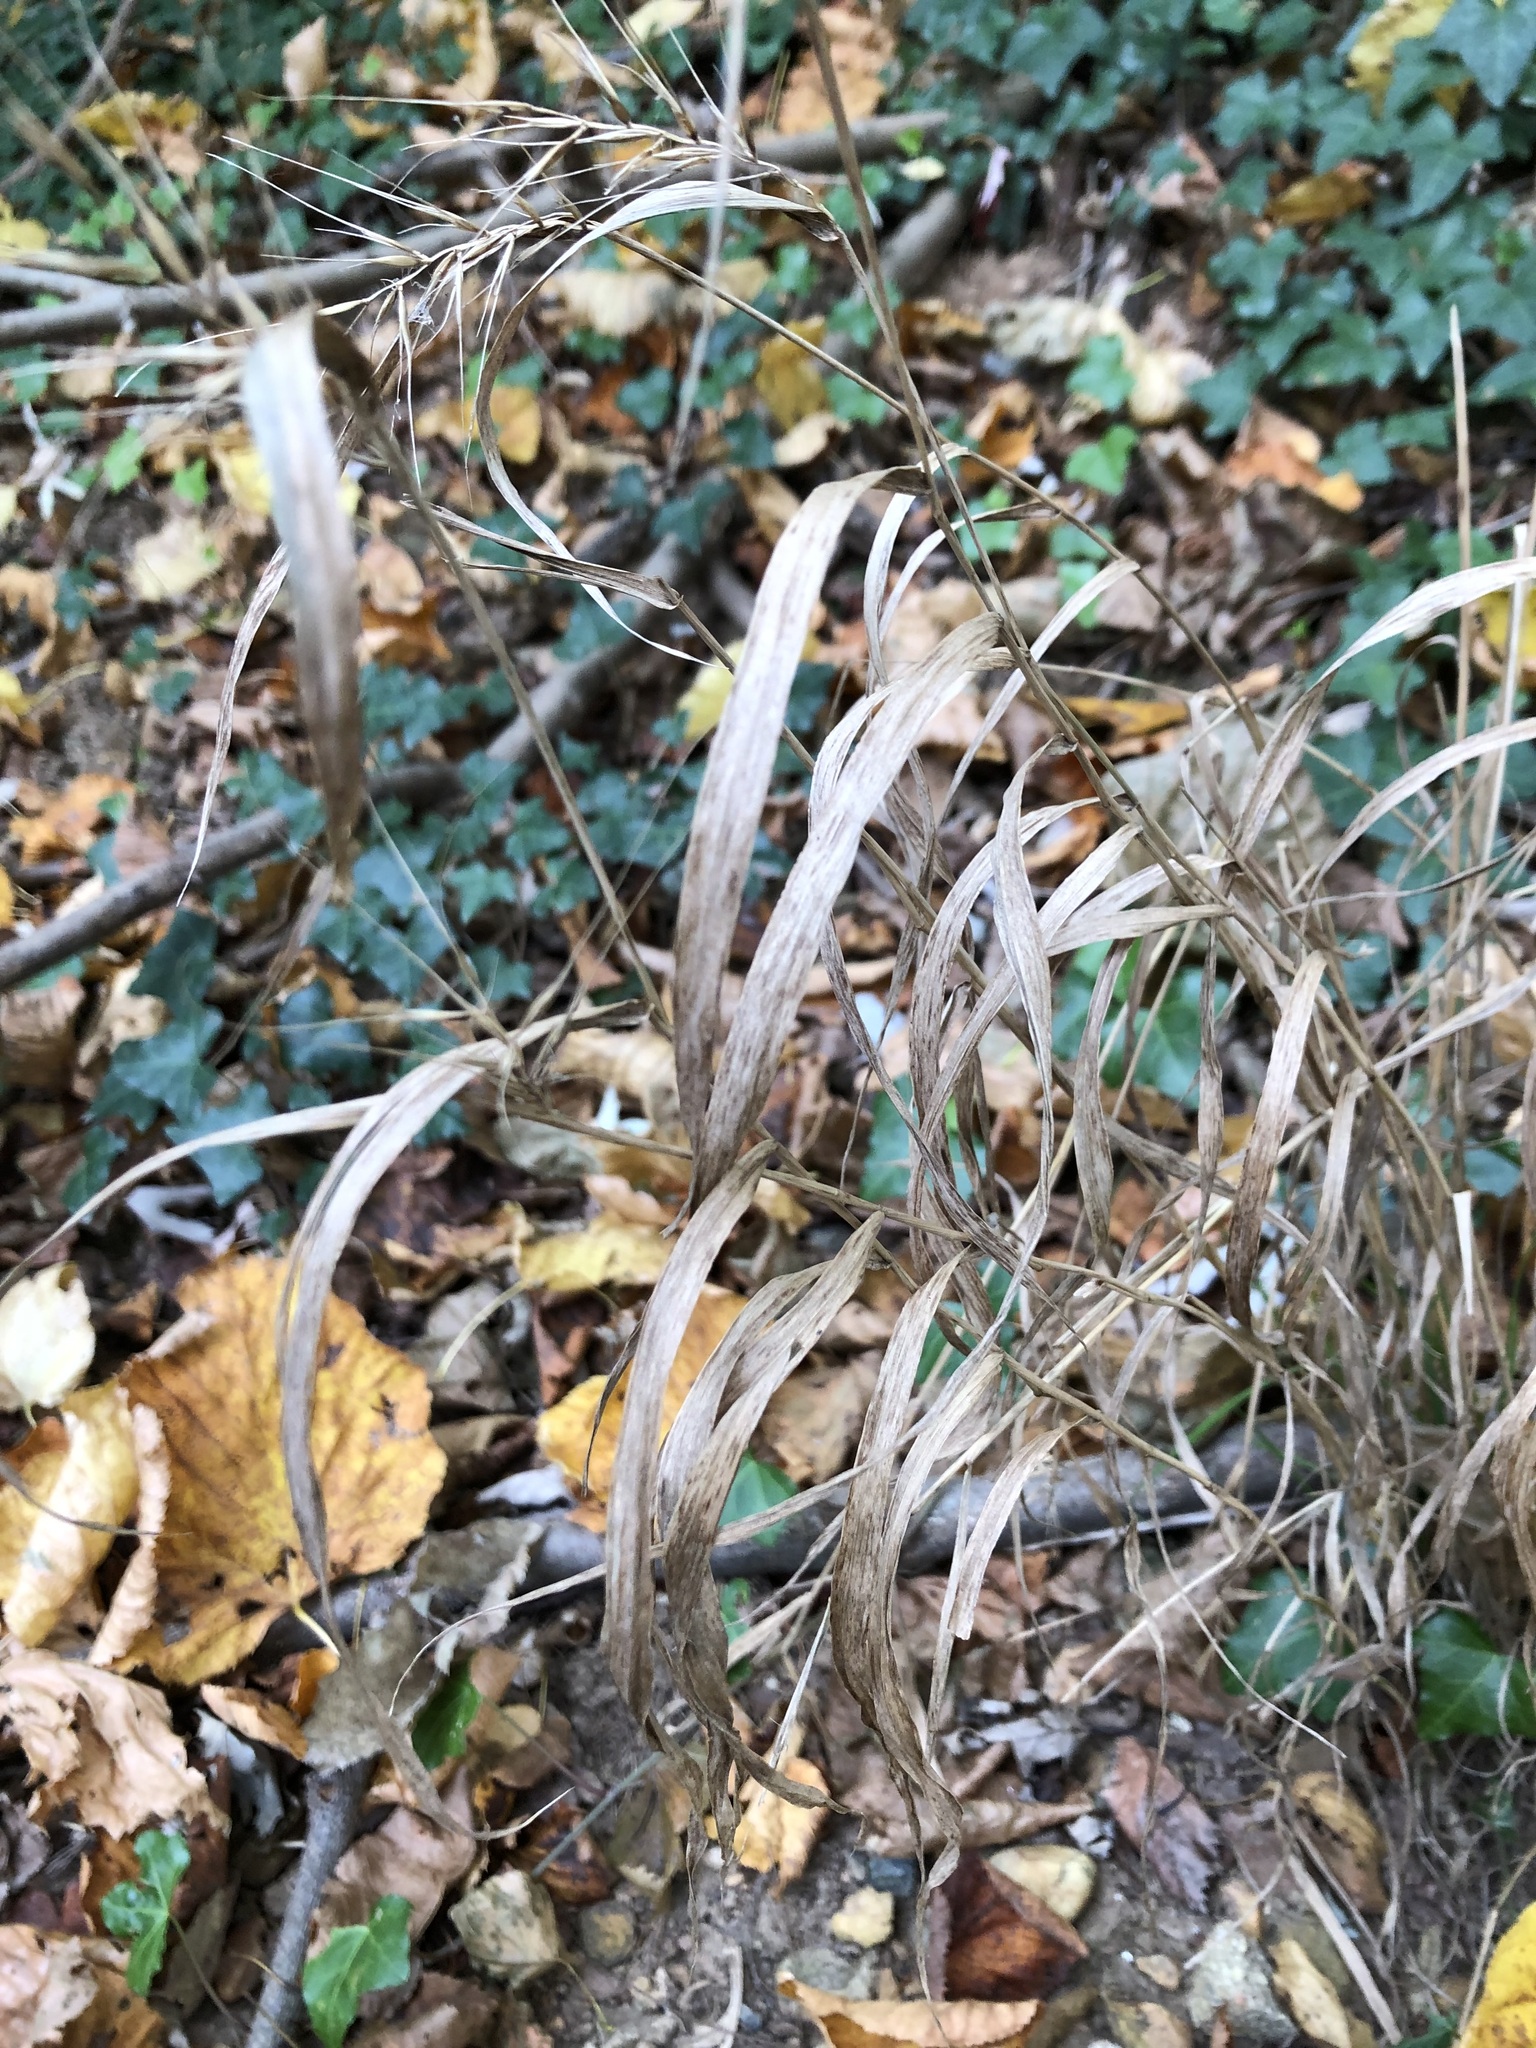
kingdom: Plantae
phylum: Tracheophyta
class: Liliopsida
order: Poales
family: Poaceae
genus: Elymus
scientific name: Elymus hystrix
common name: Bottlebrush grass
